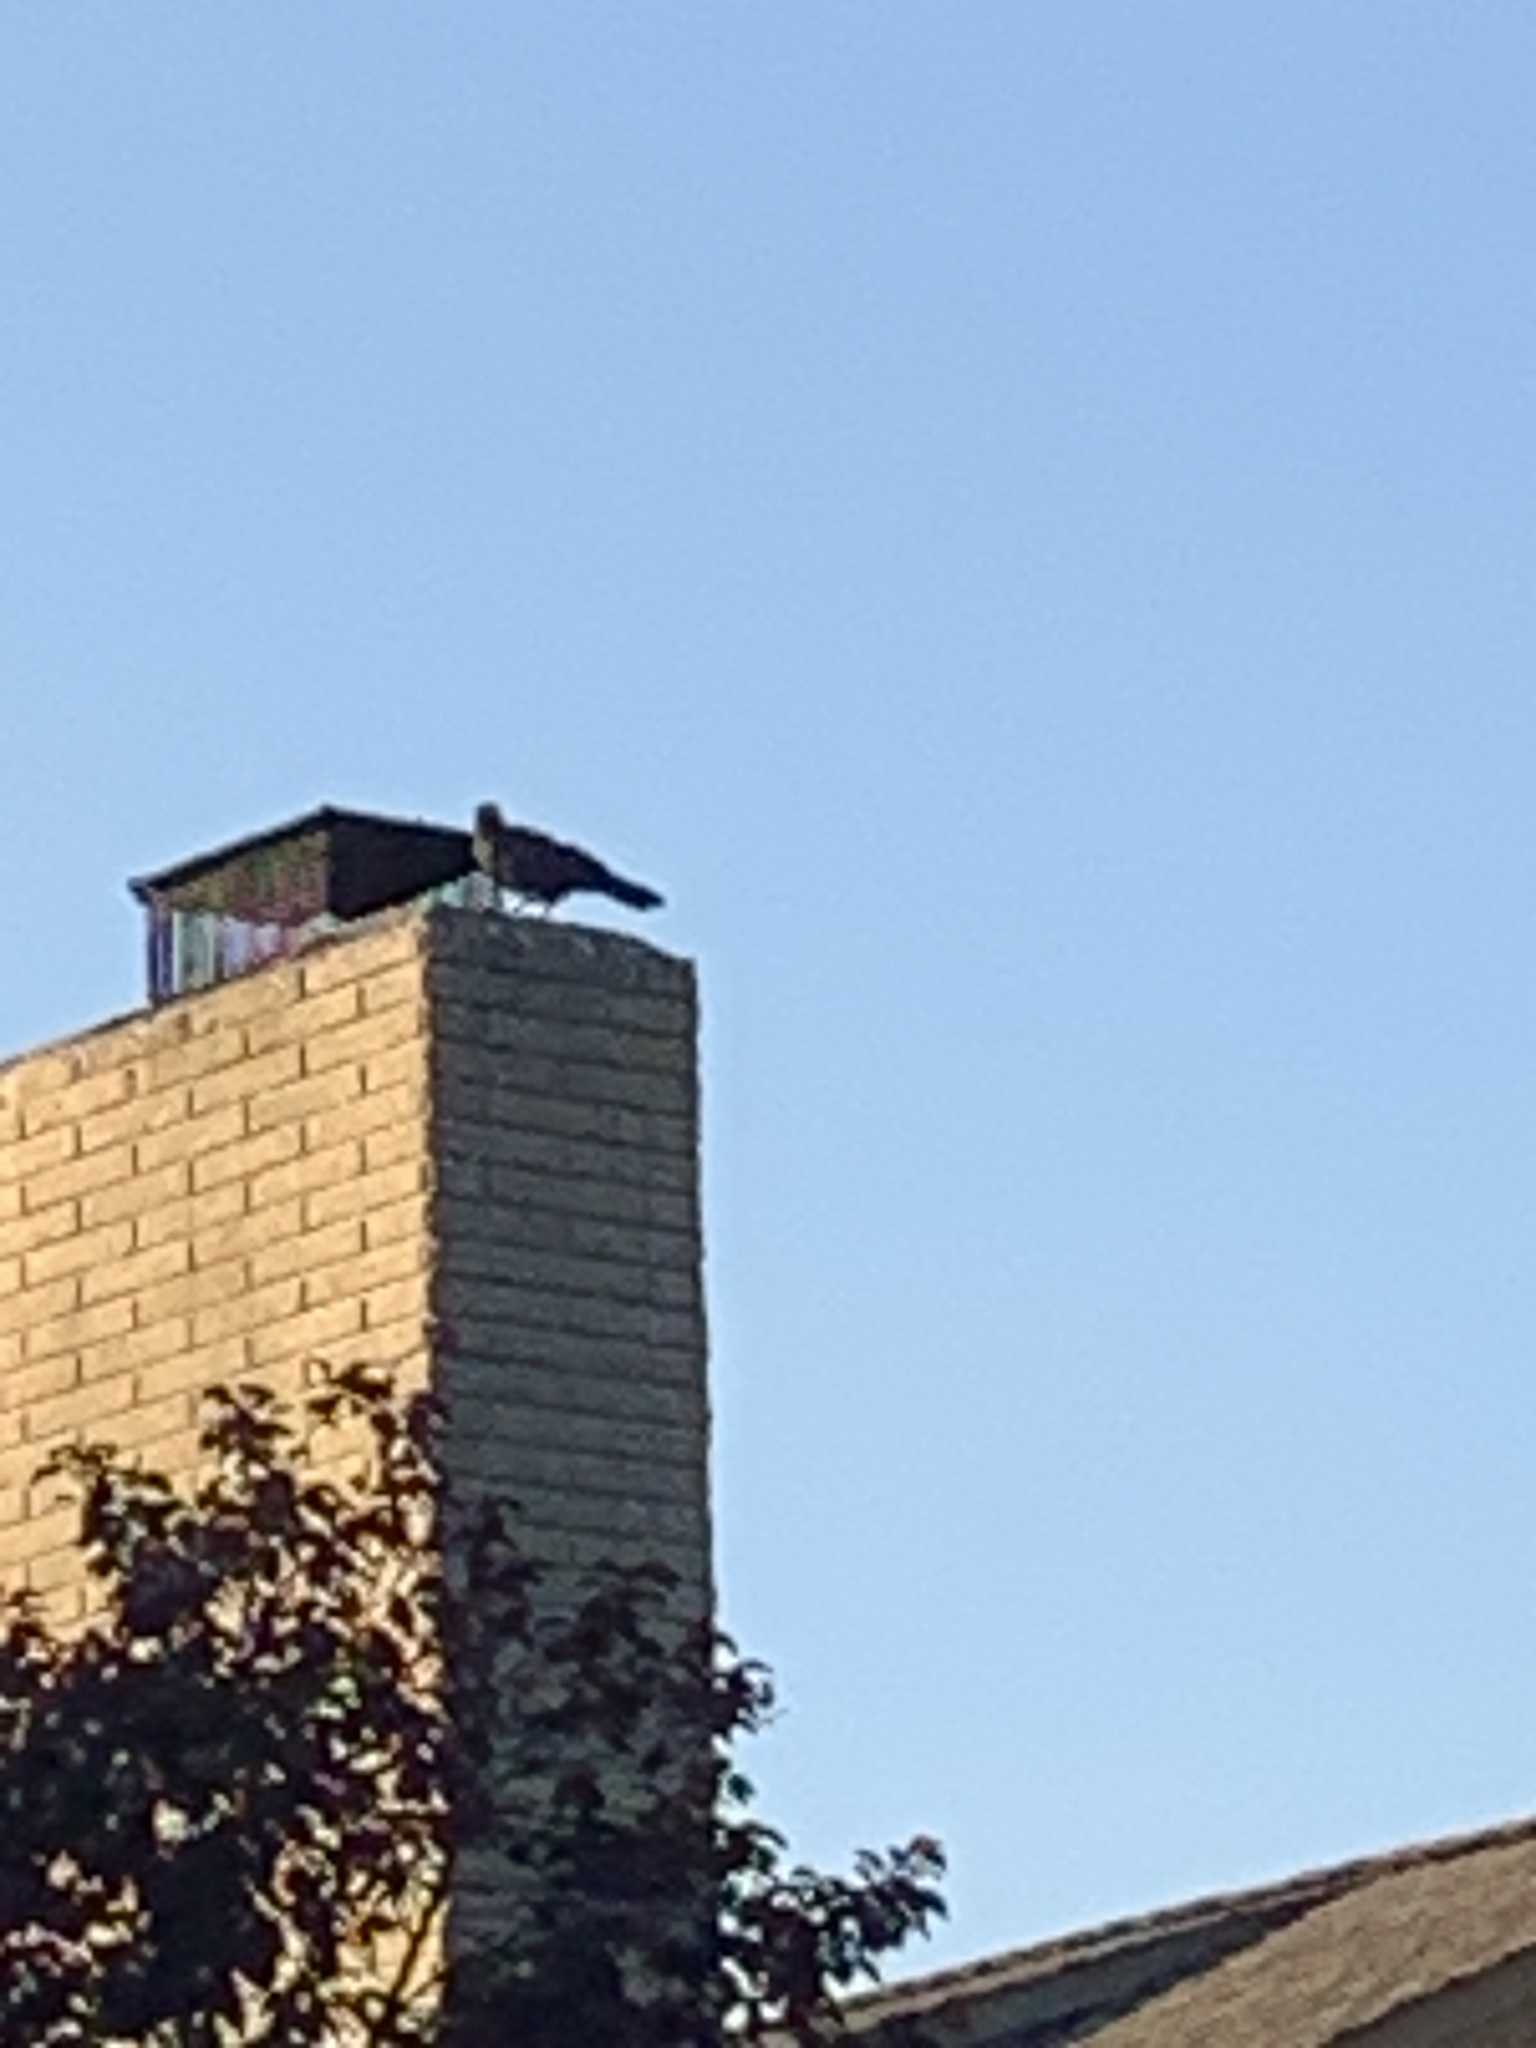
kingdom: Animalia
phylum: Chordata
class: Aves
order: Passeriformes
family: Corvidae
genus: Corvus
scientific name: Corvus brachyrhynchos
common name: American crow
